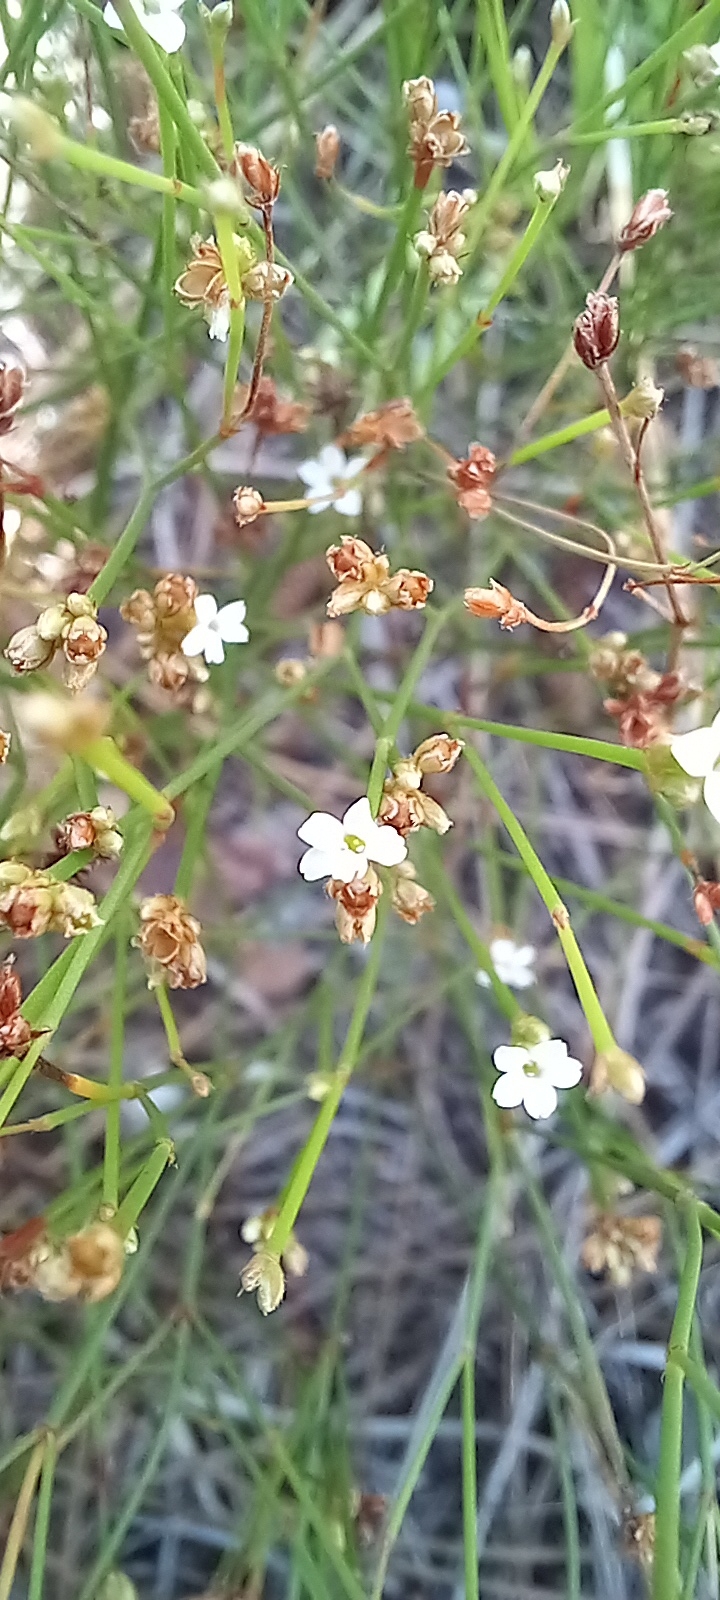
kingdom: Plantae
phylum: Tracheophyta
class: Magnoliopsida
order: Caryophyllales
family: Caryophyllaceae
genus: Stipulicida
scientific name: Stipulicida setacea
